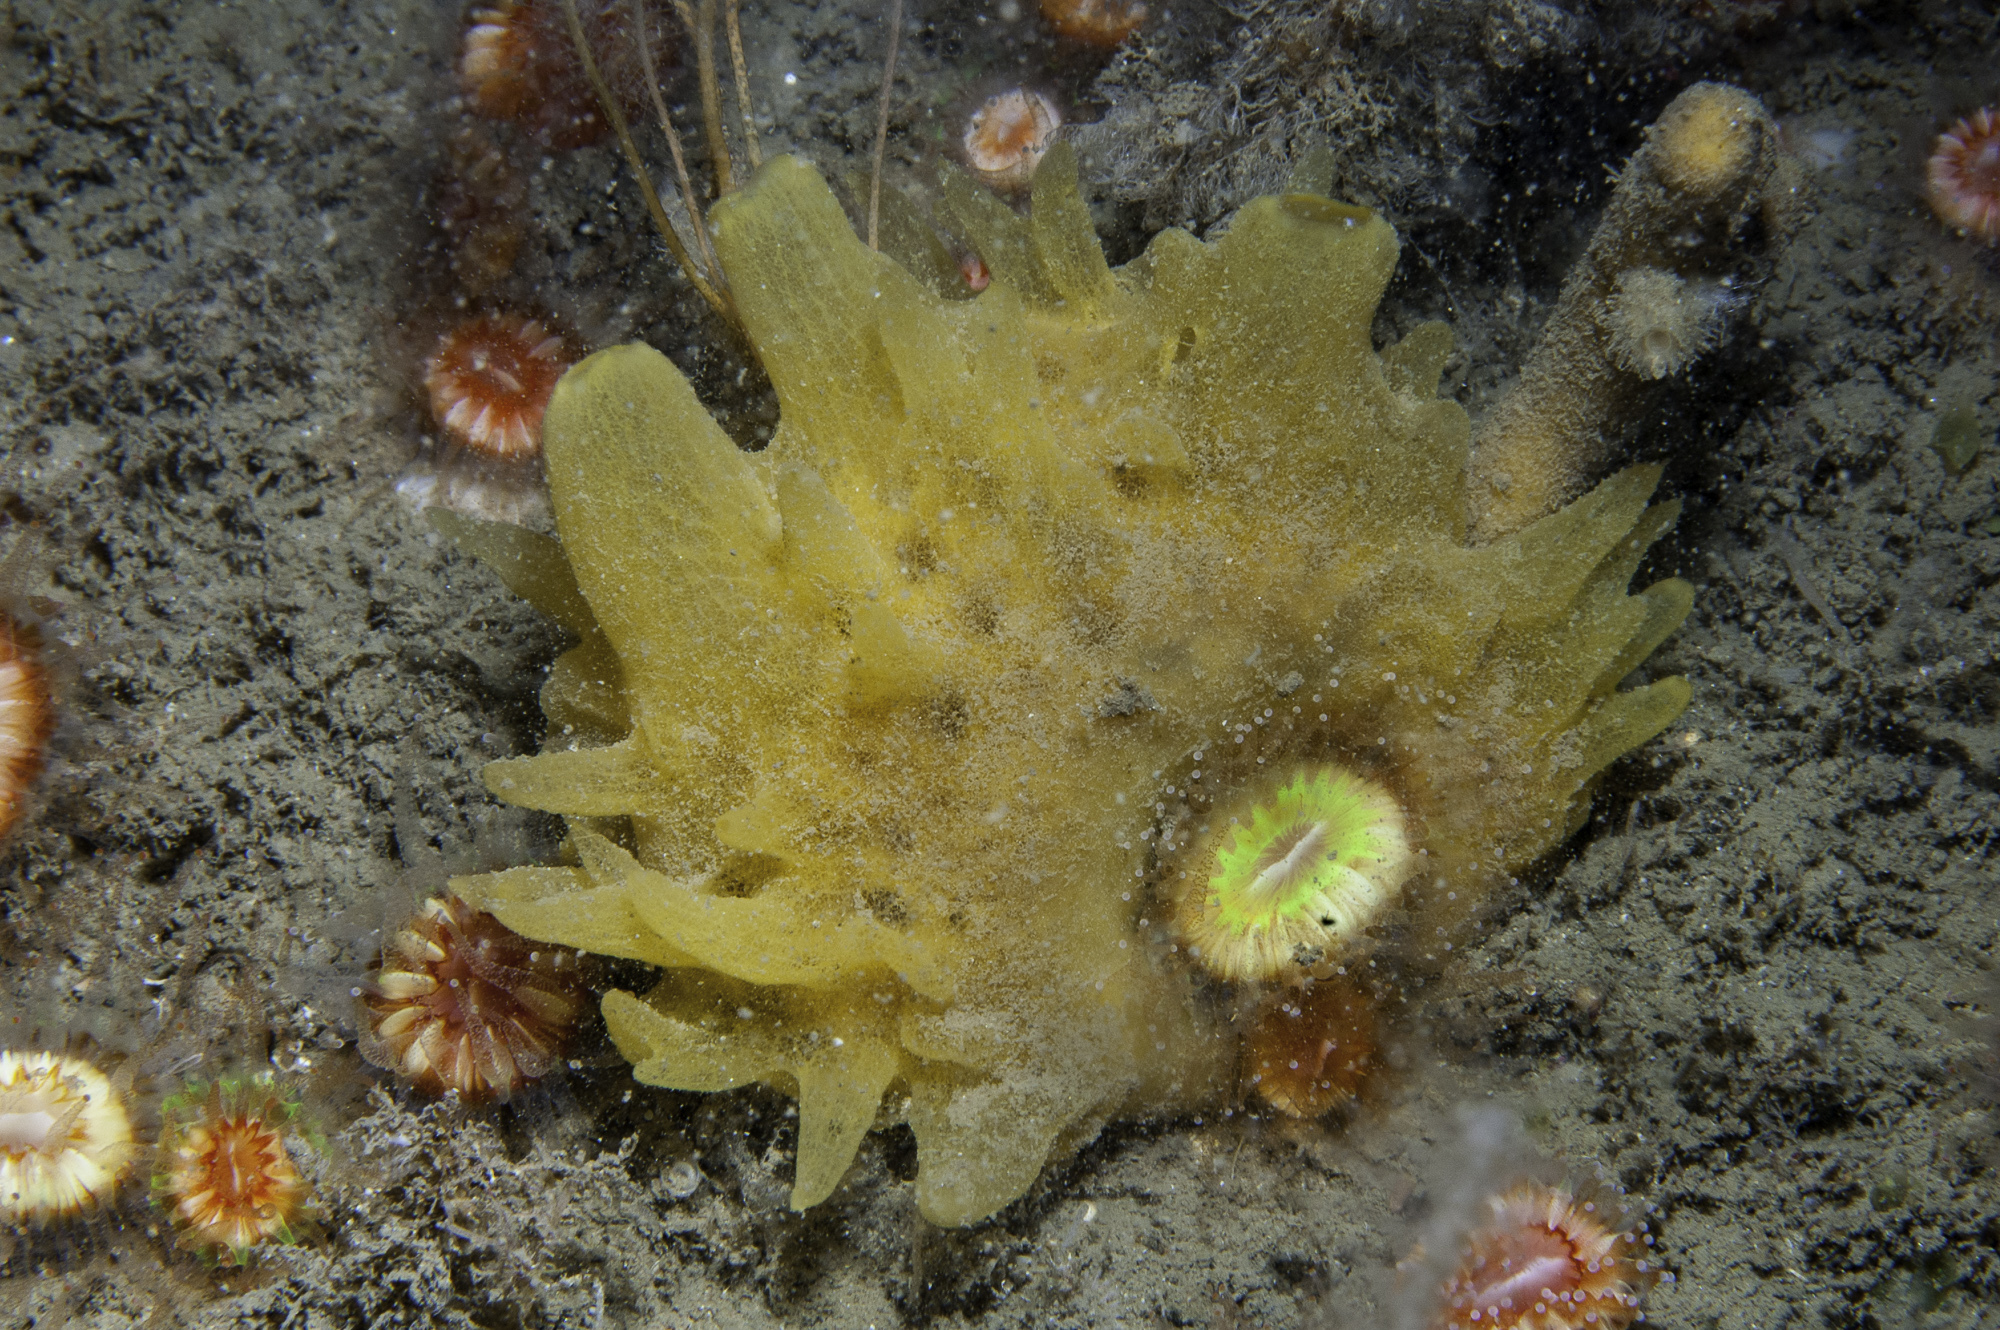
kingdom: Animalia
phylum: Porifera
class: Demospongiae
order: Polymastiida
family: Polymastiidae
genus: Polymastia
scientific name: Polymastia boletiformis
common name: Massive horny sponge
